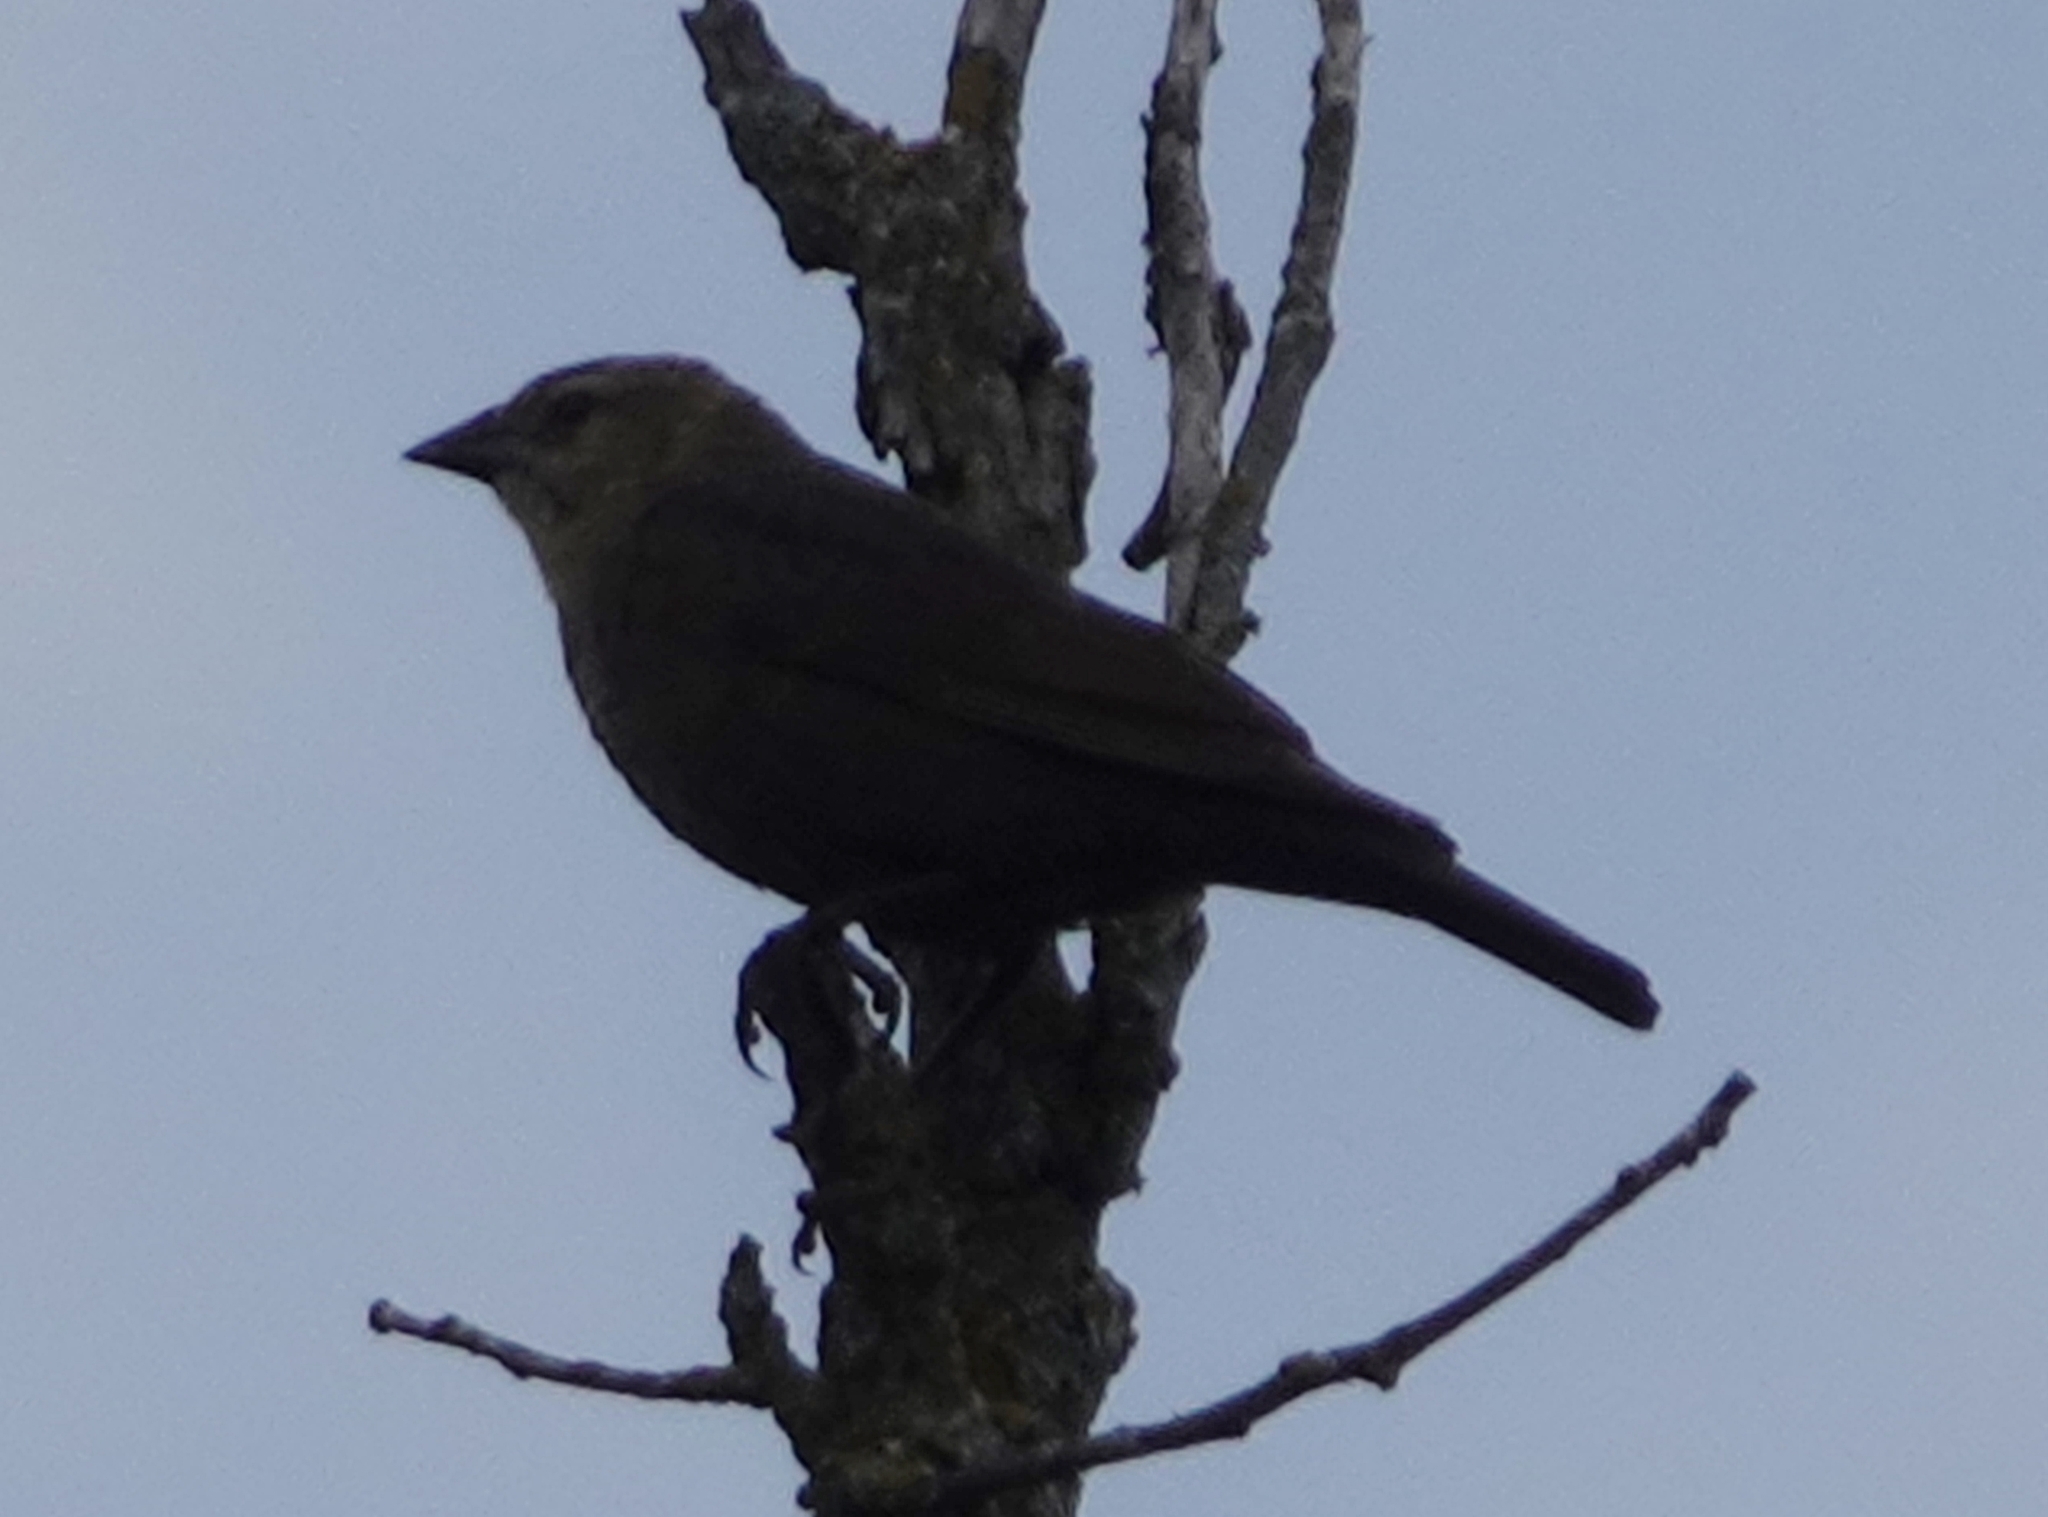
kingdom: Animalia
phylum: Chordata
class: Aves
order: Passeriformes
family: Icteridae
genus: Molothrus
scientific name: Molothrus ater
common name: Brown-headed cowbird
